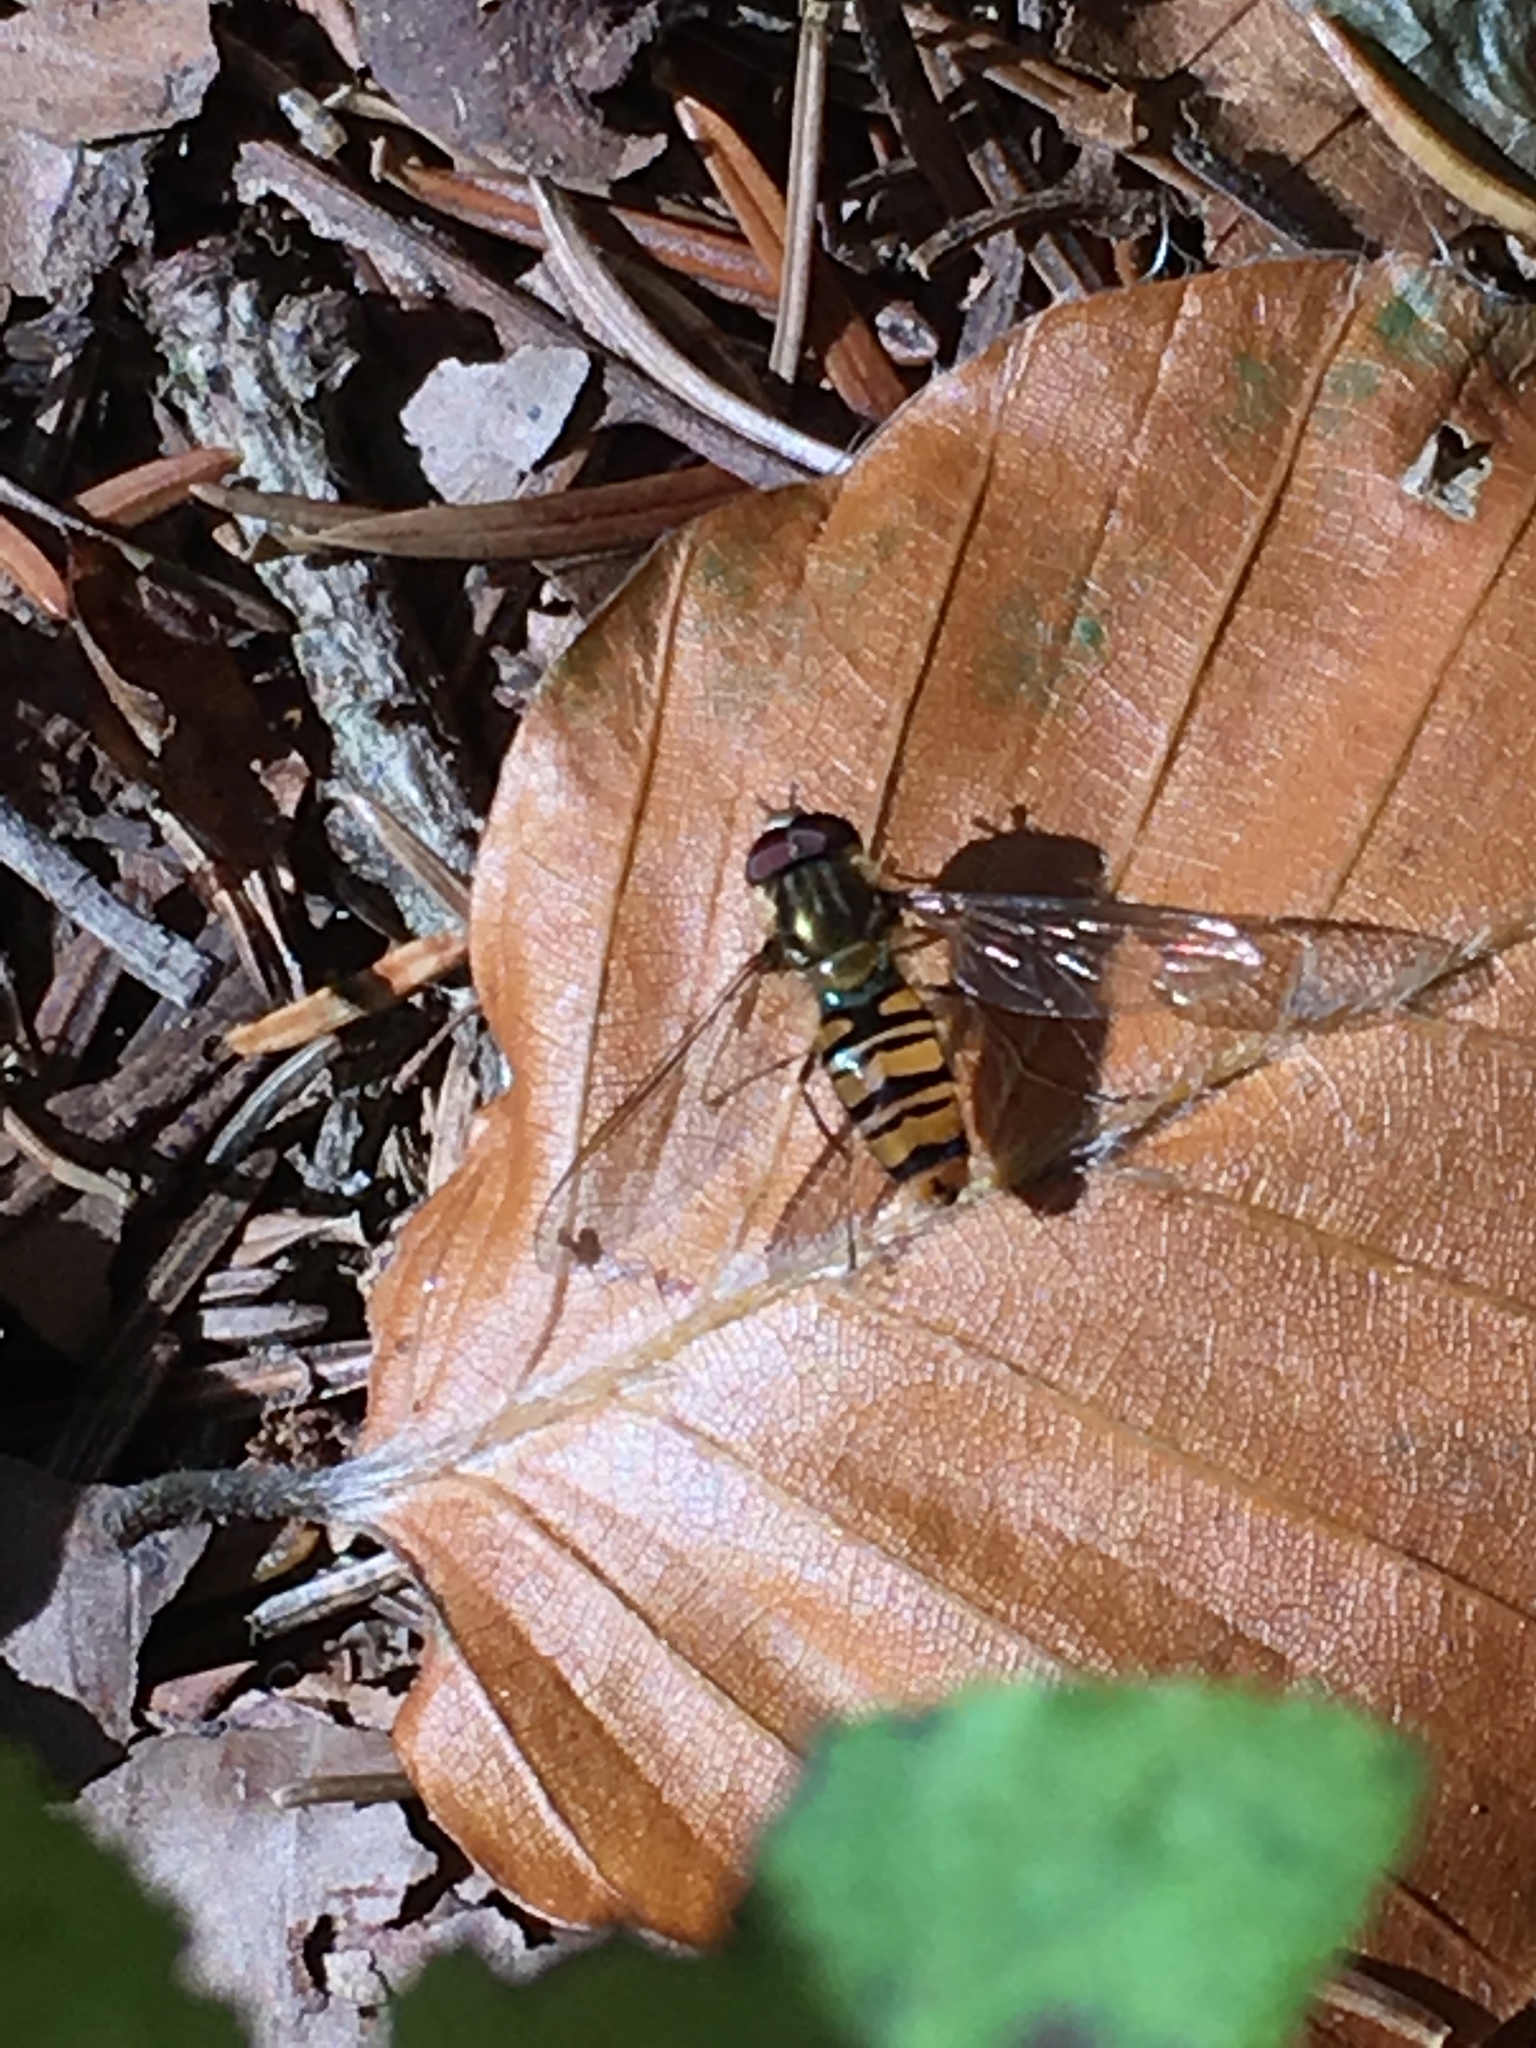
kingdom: Animalia
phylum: Arthropoda
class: Insecta
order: Diptera
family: Syrphidae
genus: Episyrphus
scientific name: Episyrphus balteatus
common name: Marmalade hoverfly
